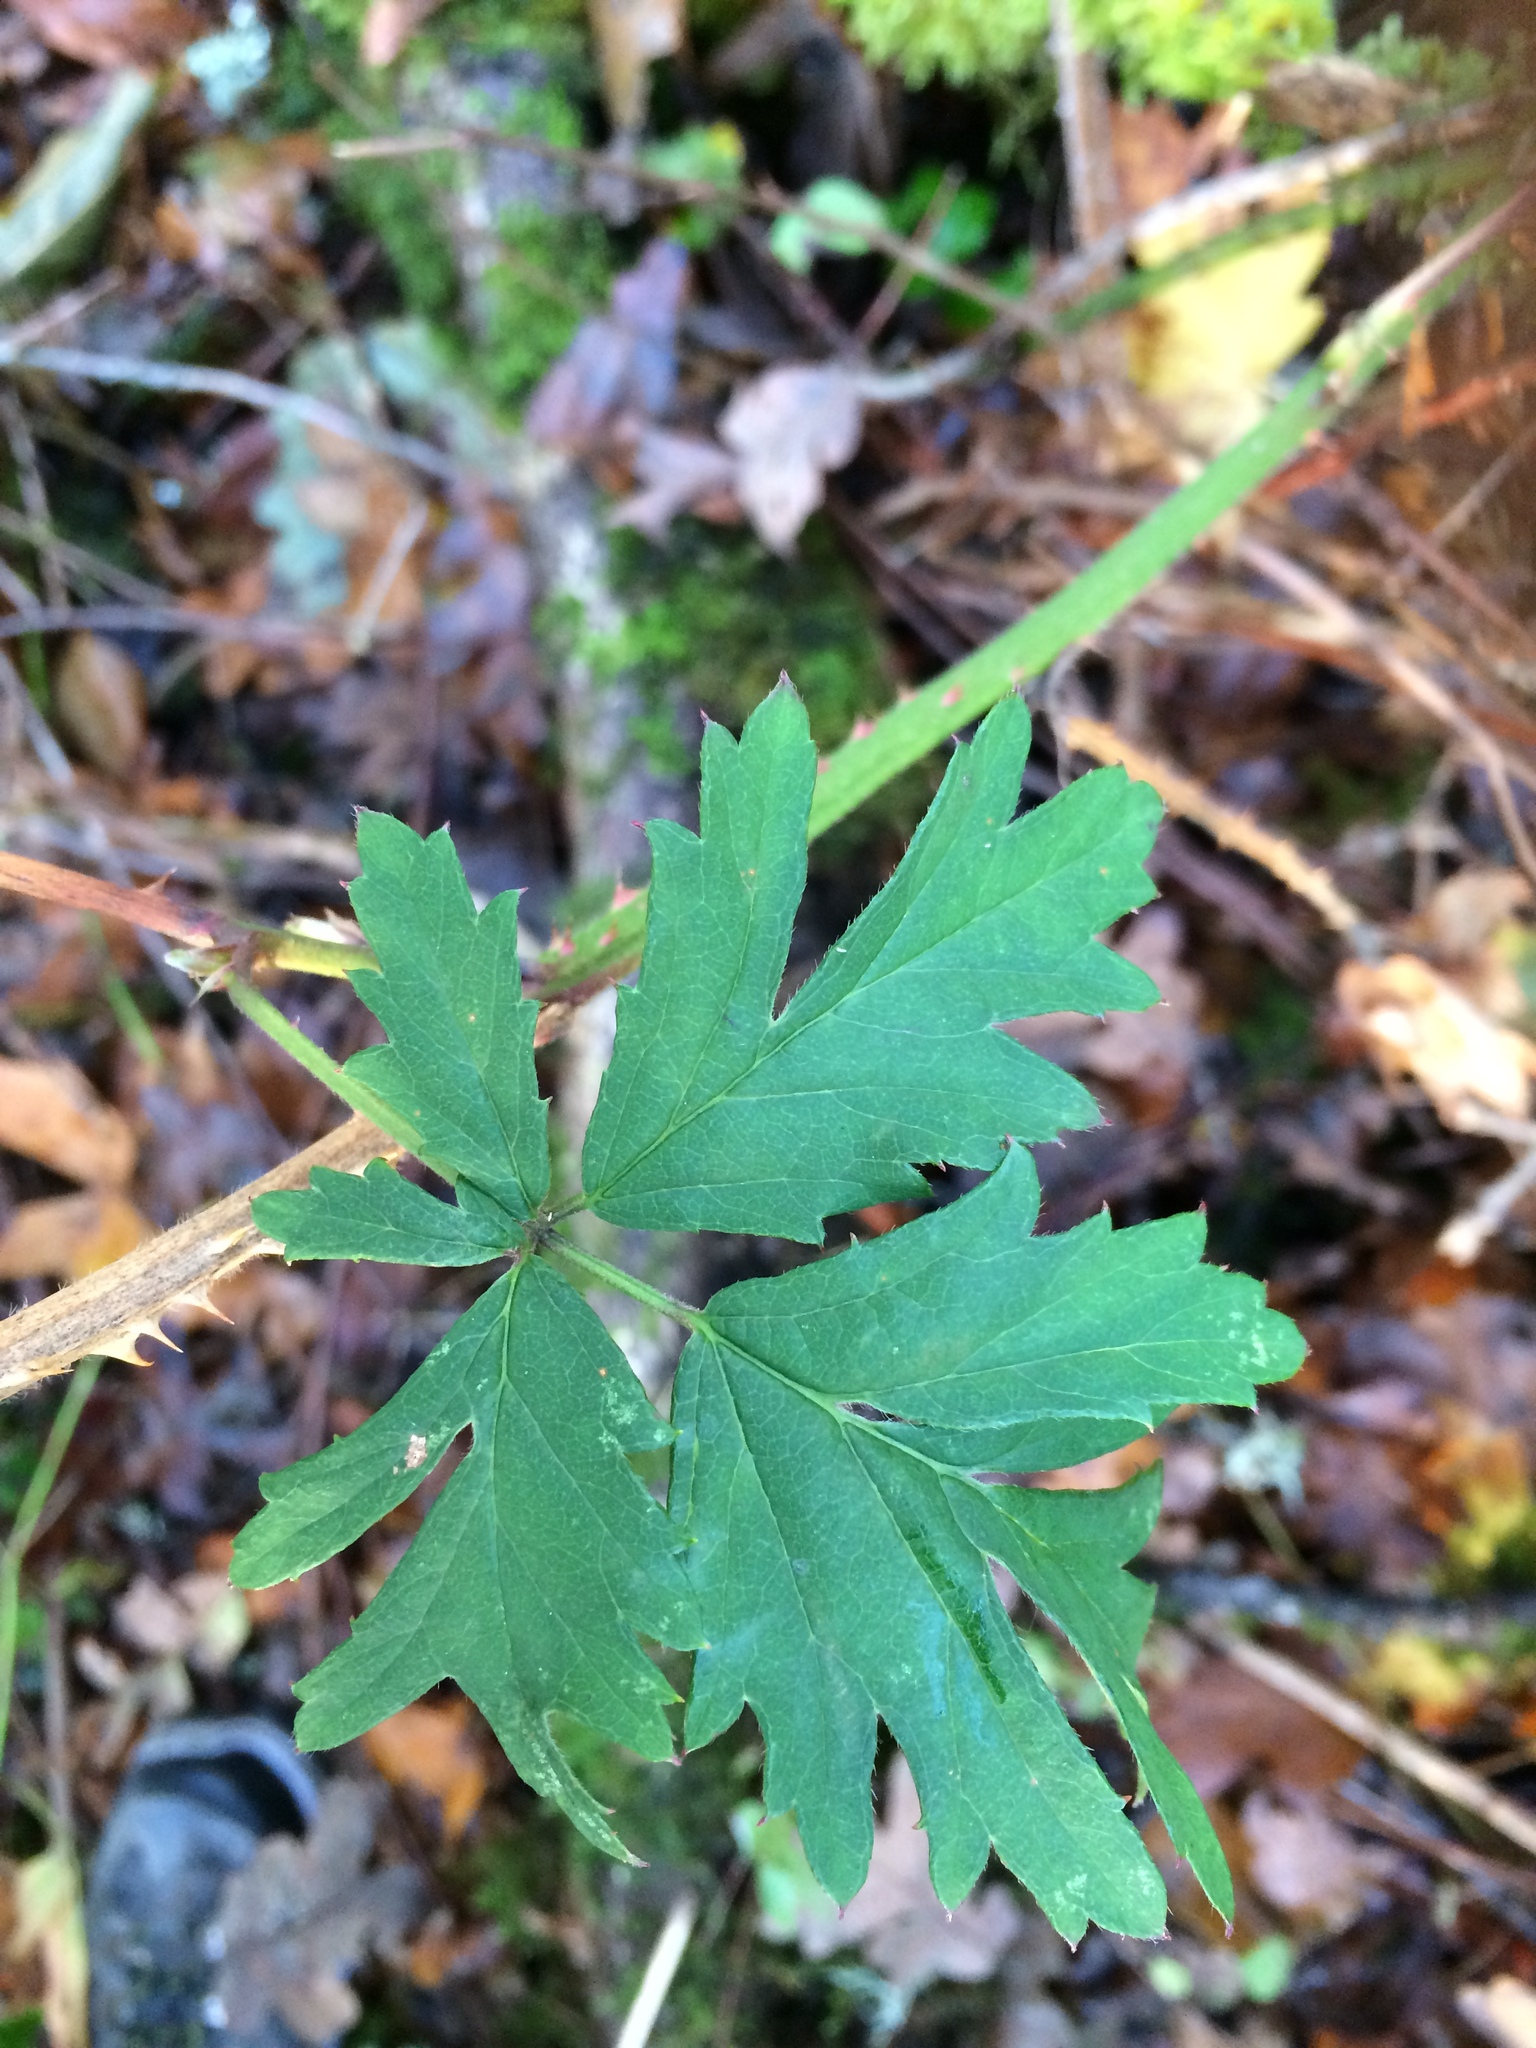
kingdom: Plantae
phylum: Tracheophyta
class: Magnoliopsida
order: Rosales
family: Rosaceae
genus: Rubus
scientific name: Rubus laciniatus
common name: Evergreen blackberry
